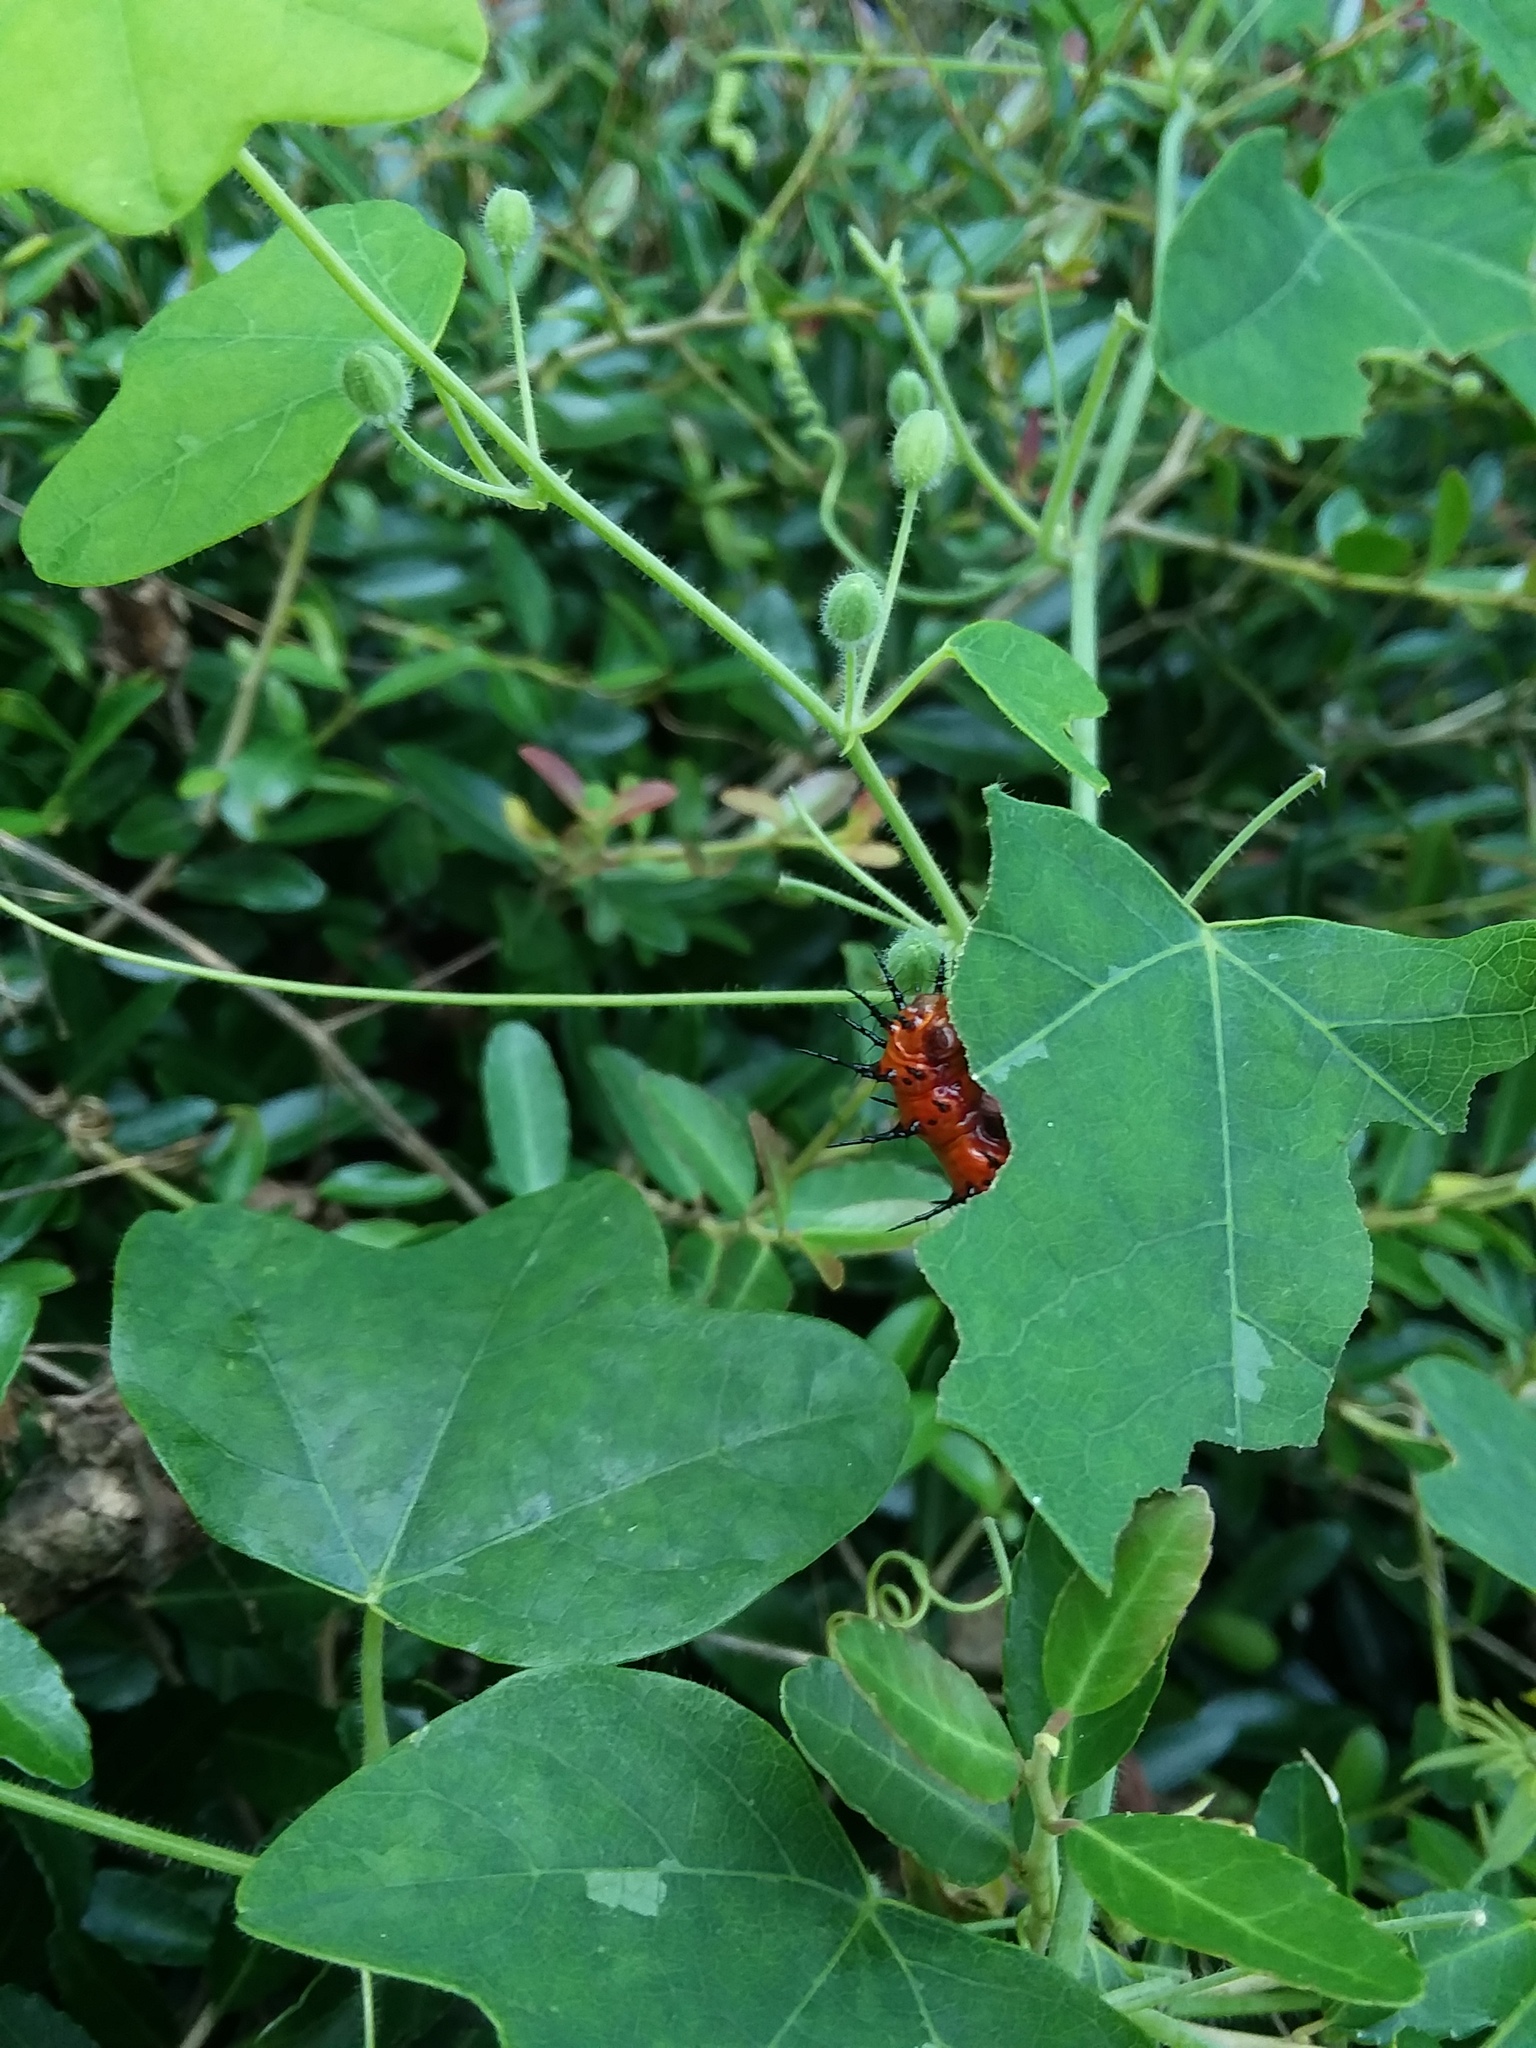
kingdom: Animalia
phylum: Arthropoda
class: Insecta
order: Lepidoptera
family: Nymphalidae
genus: Dione
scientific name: Dione vanillae
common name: Gulf fritillary
